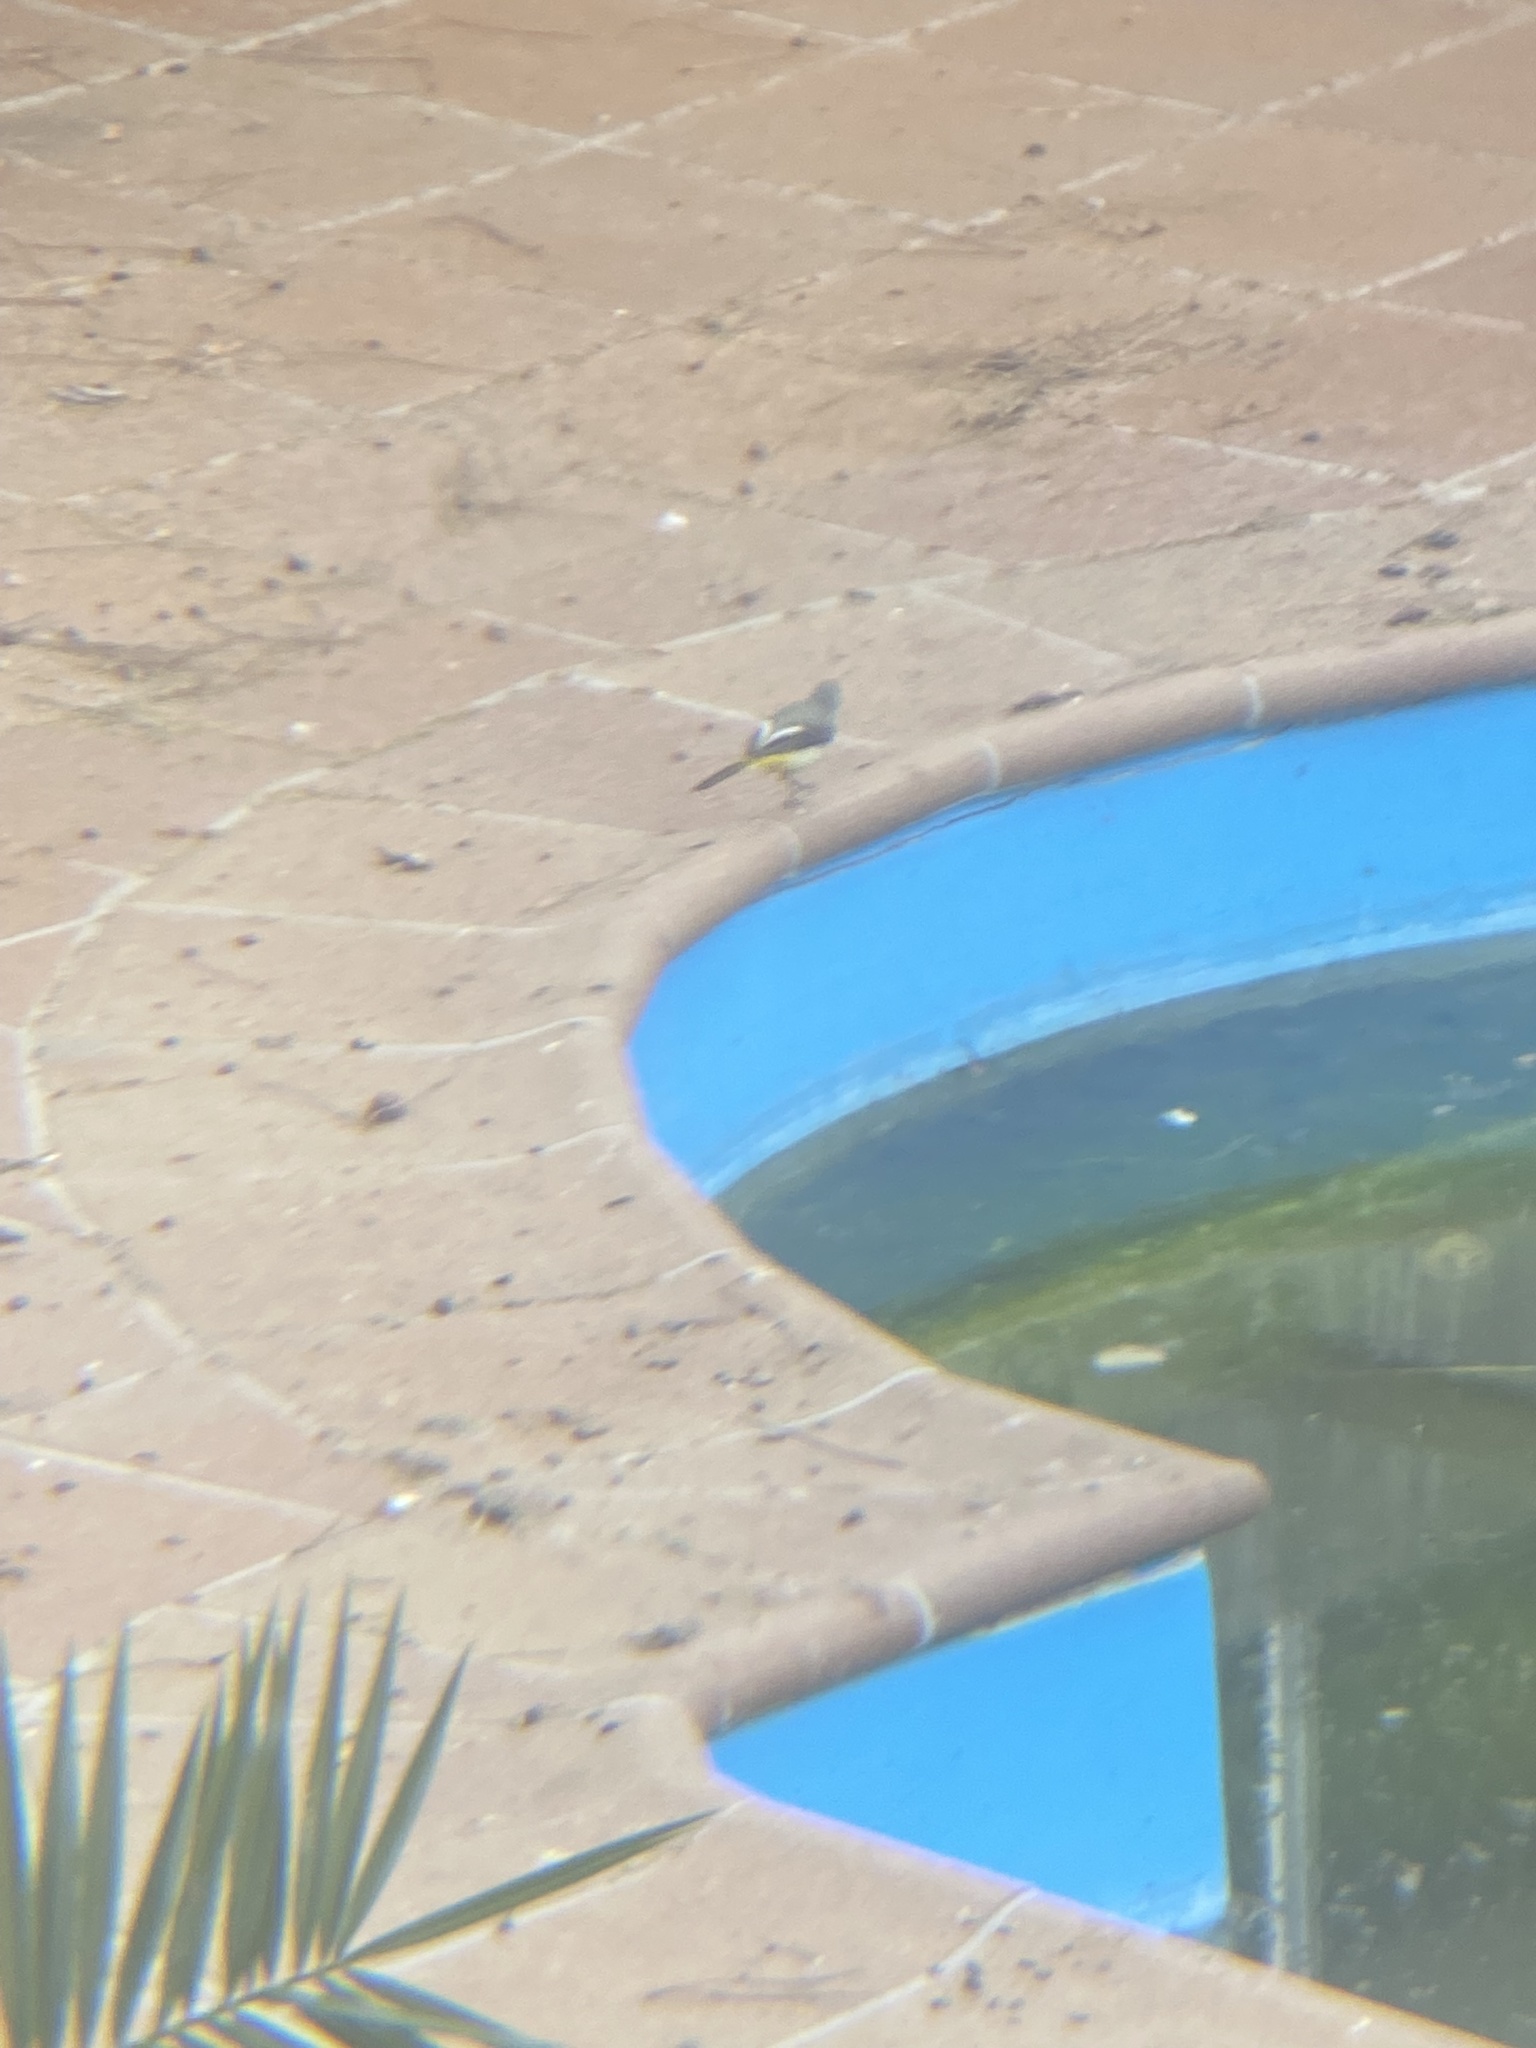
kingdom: Animalia
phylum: Chordata
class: Aves
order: Passeriformes
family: Motacillidae
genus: Motacilla
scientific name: Motacilla cinerea
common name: Grey wagtail
